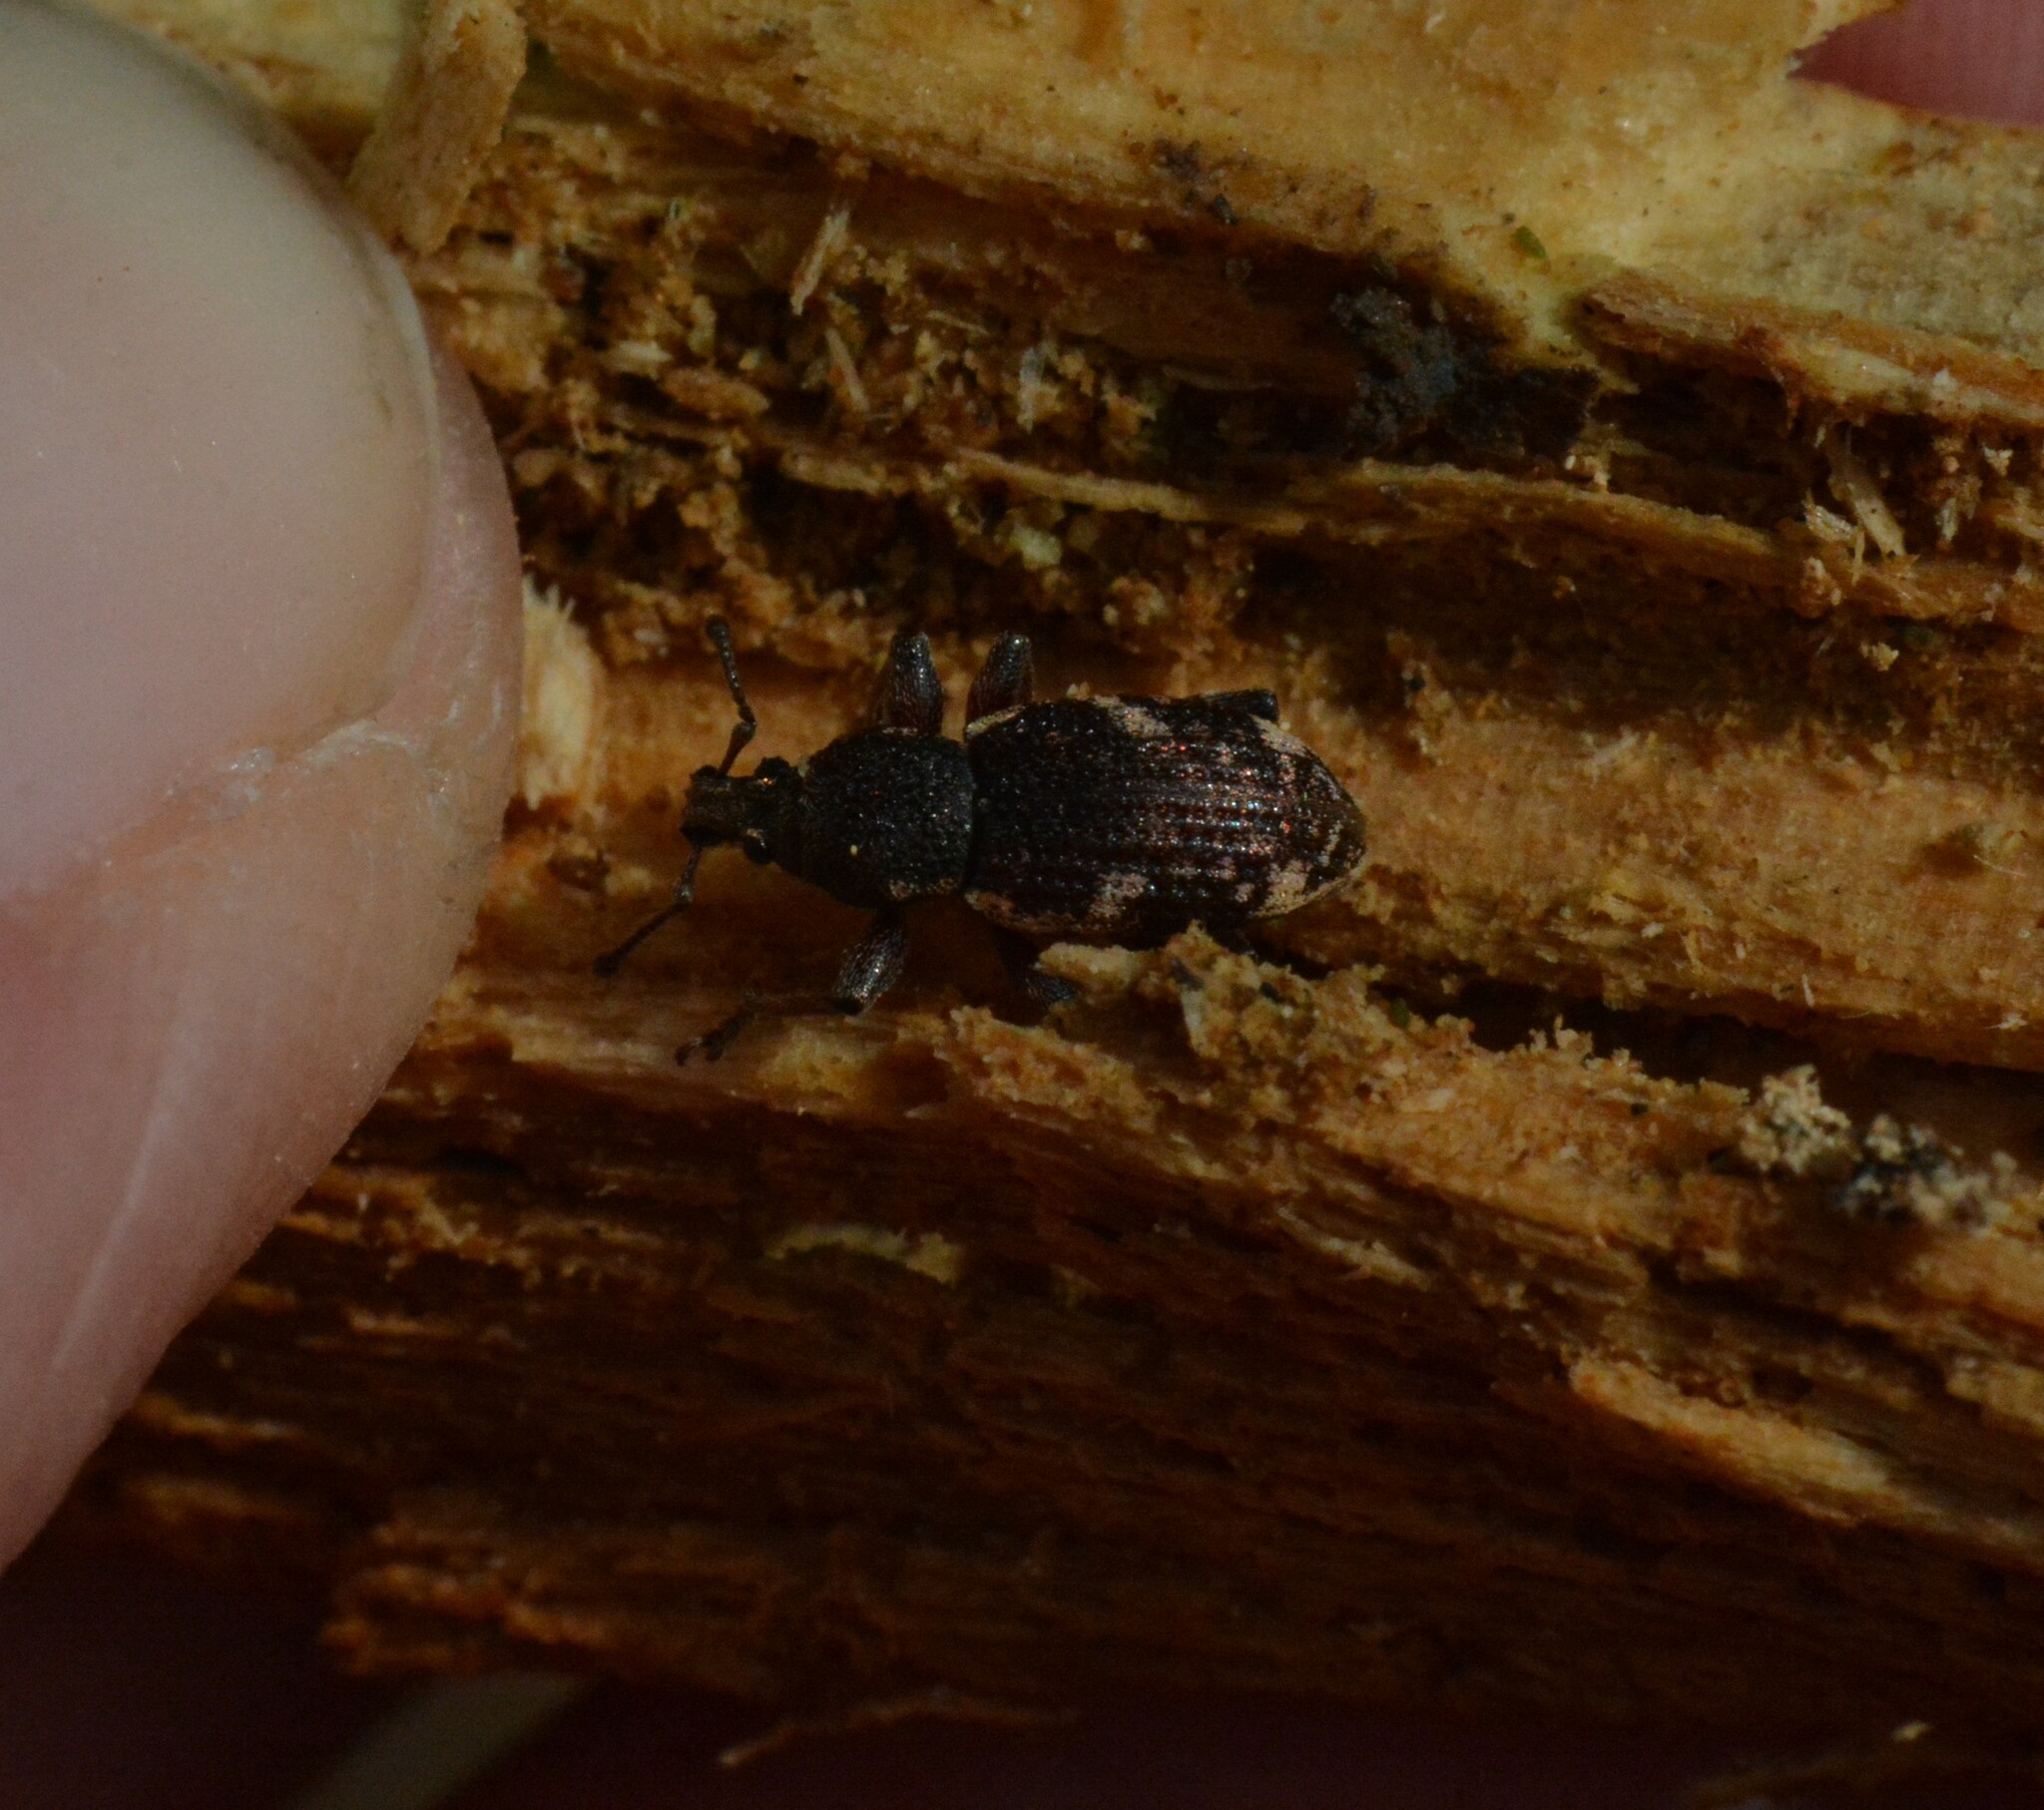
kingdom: Animalia
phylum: Arthropoda
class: Insecta
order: Coleoptera
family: Curculionidae
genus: Hormorus
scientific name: Hormorus undulatus
